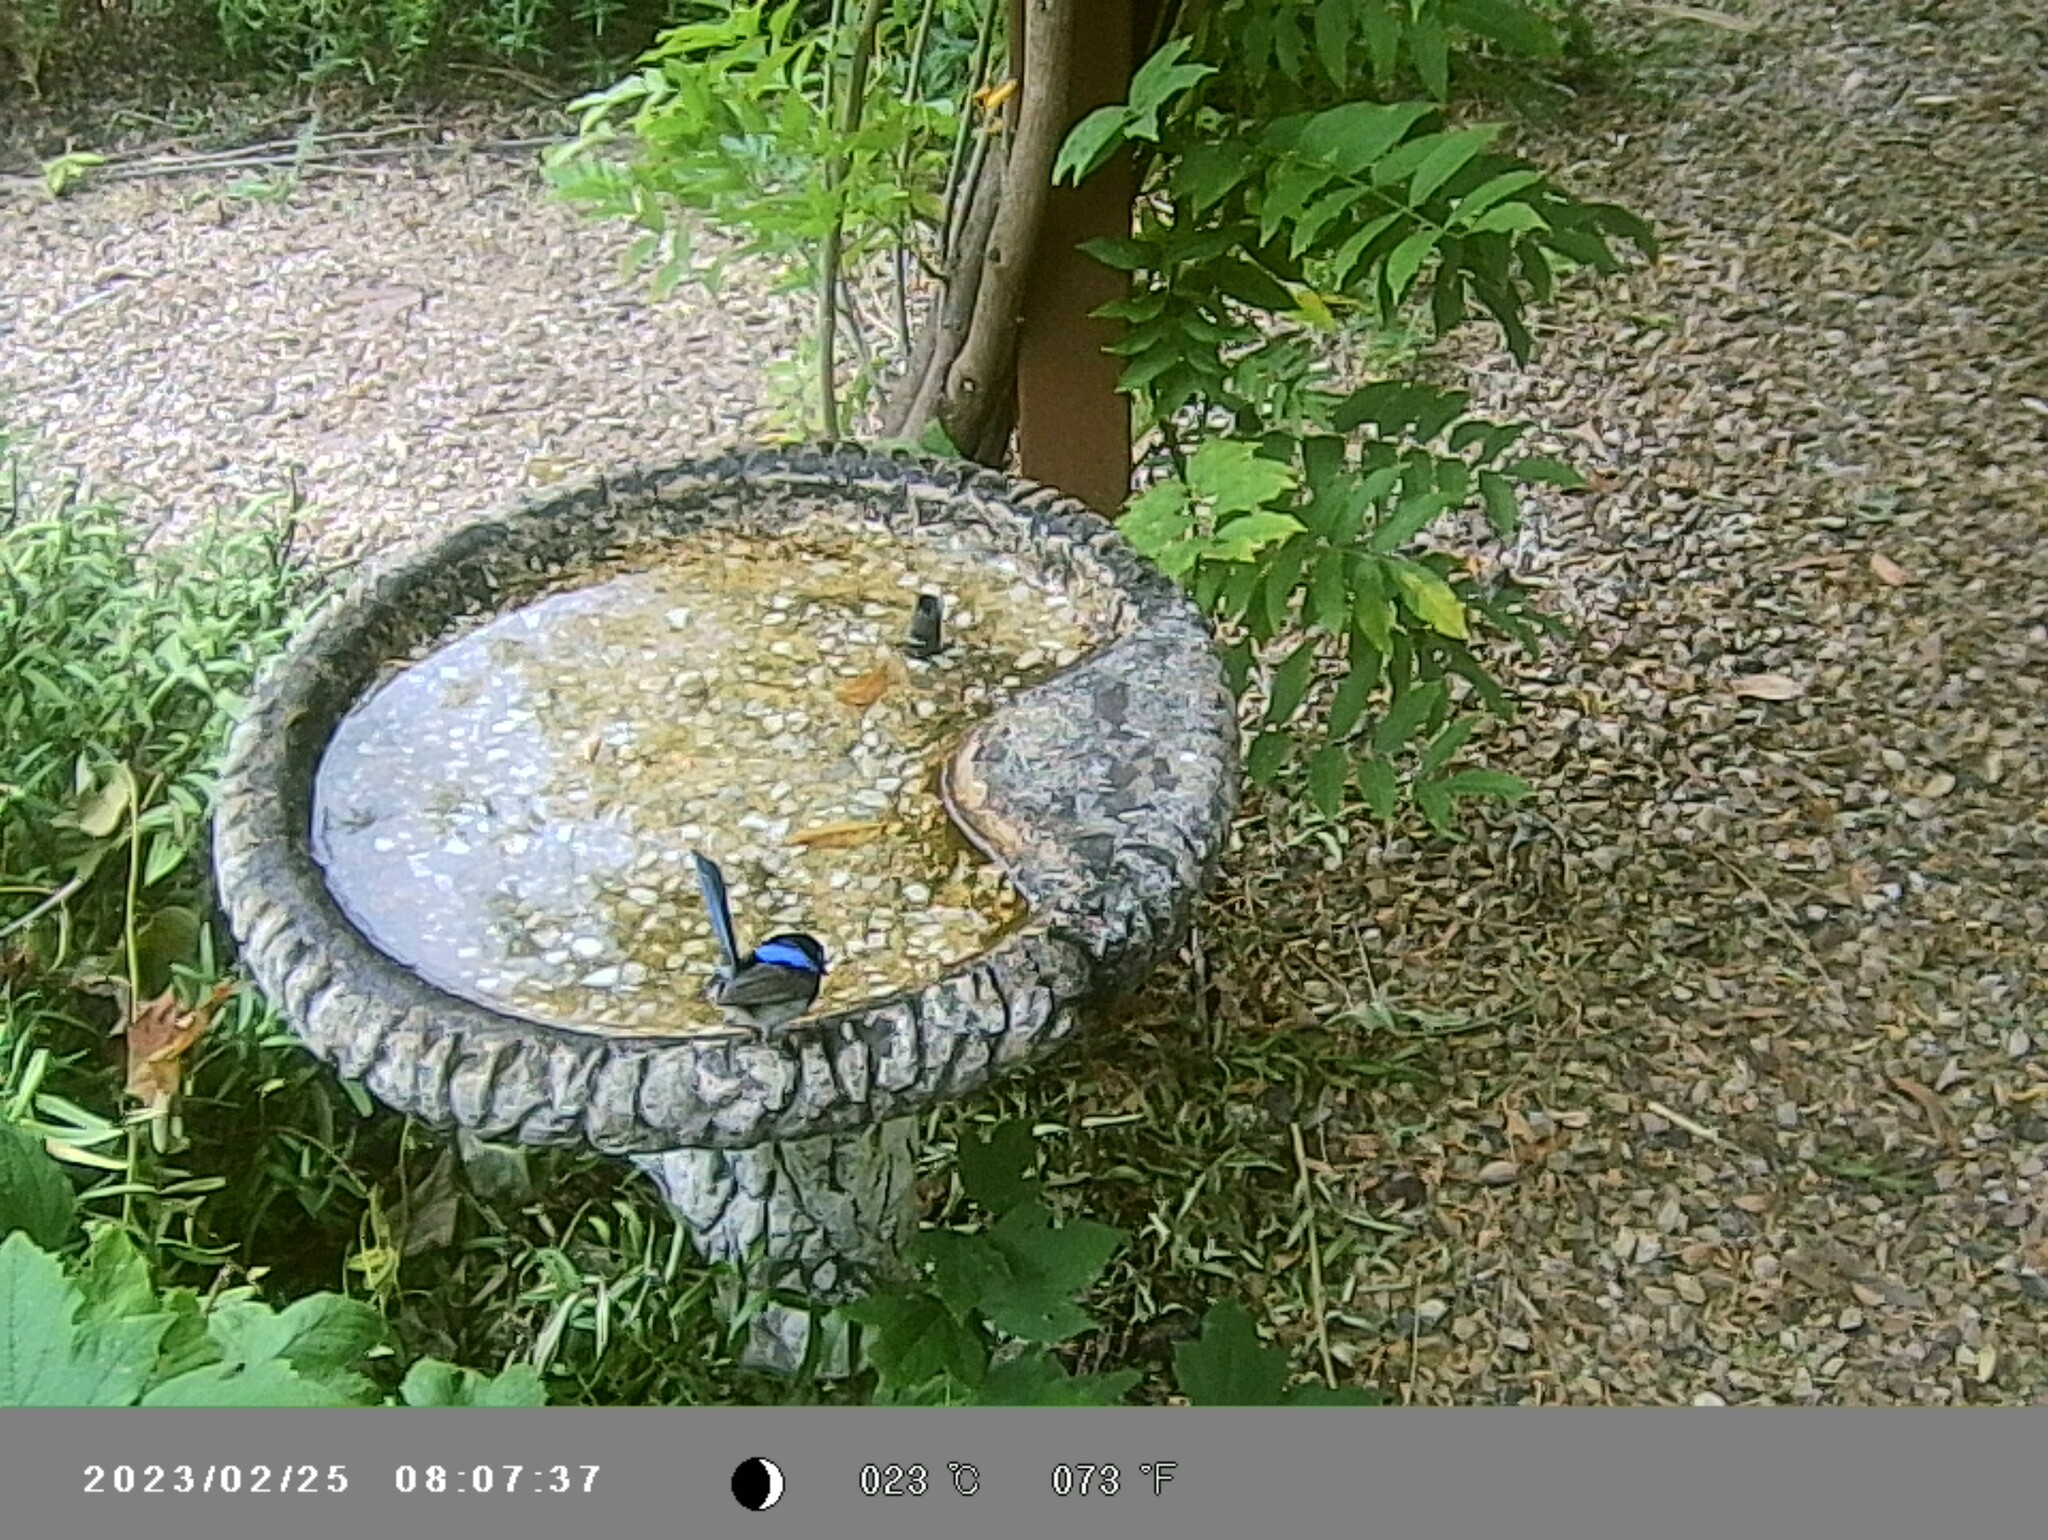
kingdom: Animalia
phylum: Chordata
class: Aves
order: Passeriformes
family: Maluridae
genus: Malurus
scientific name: Malurus cyaneus
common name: Superb fairywren
